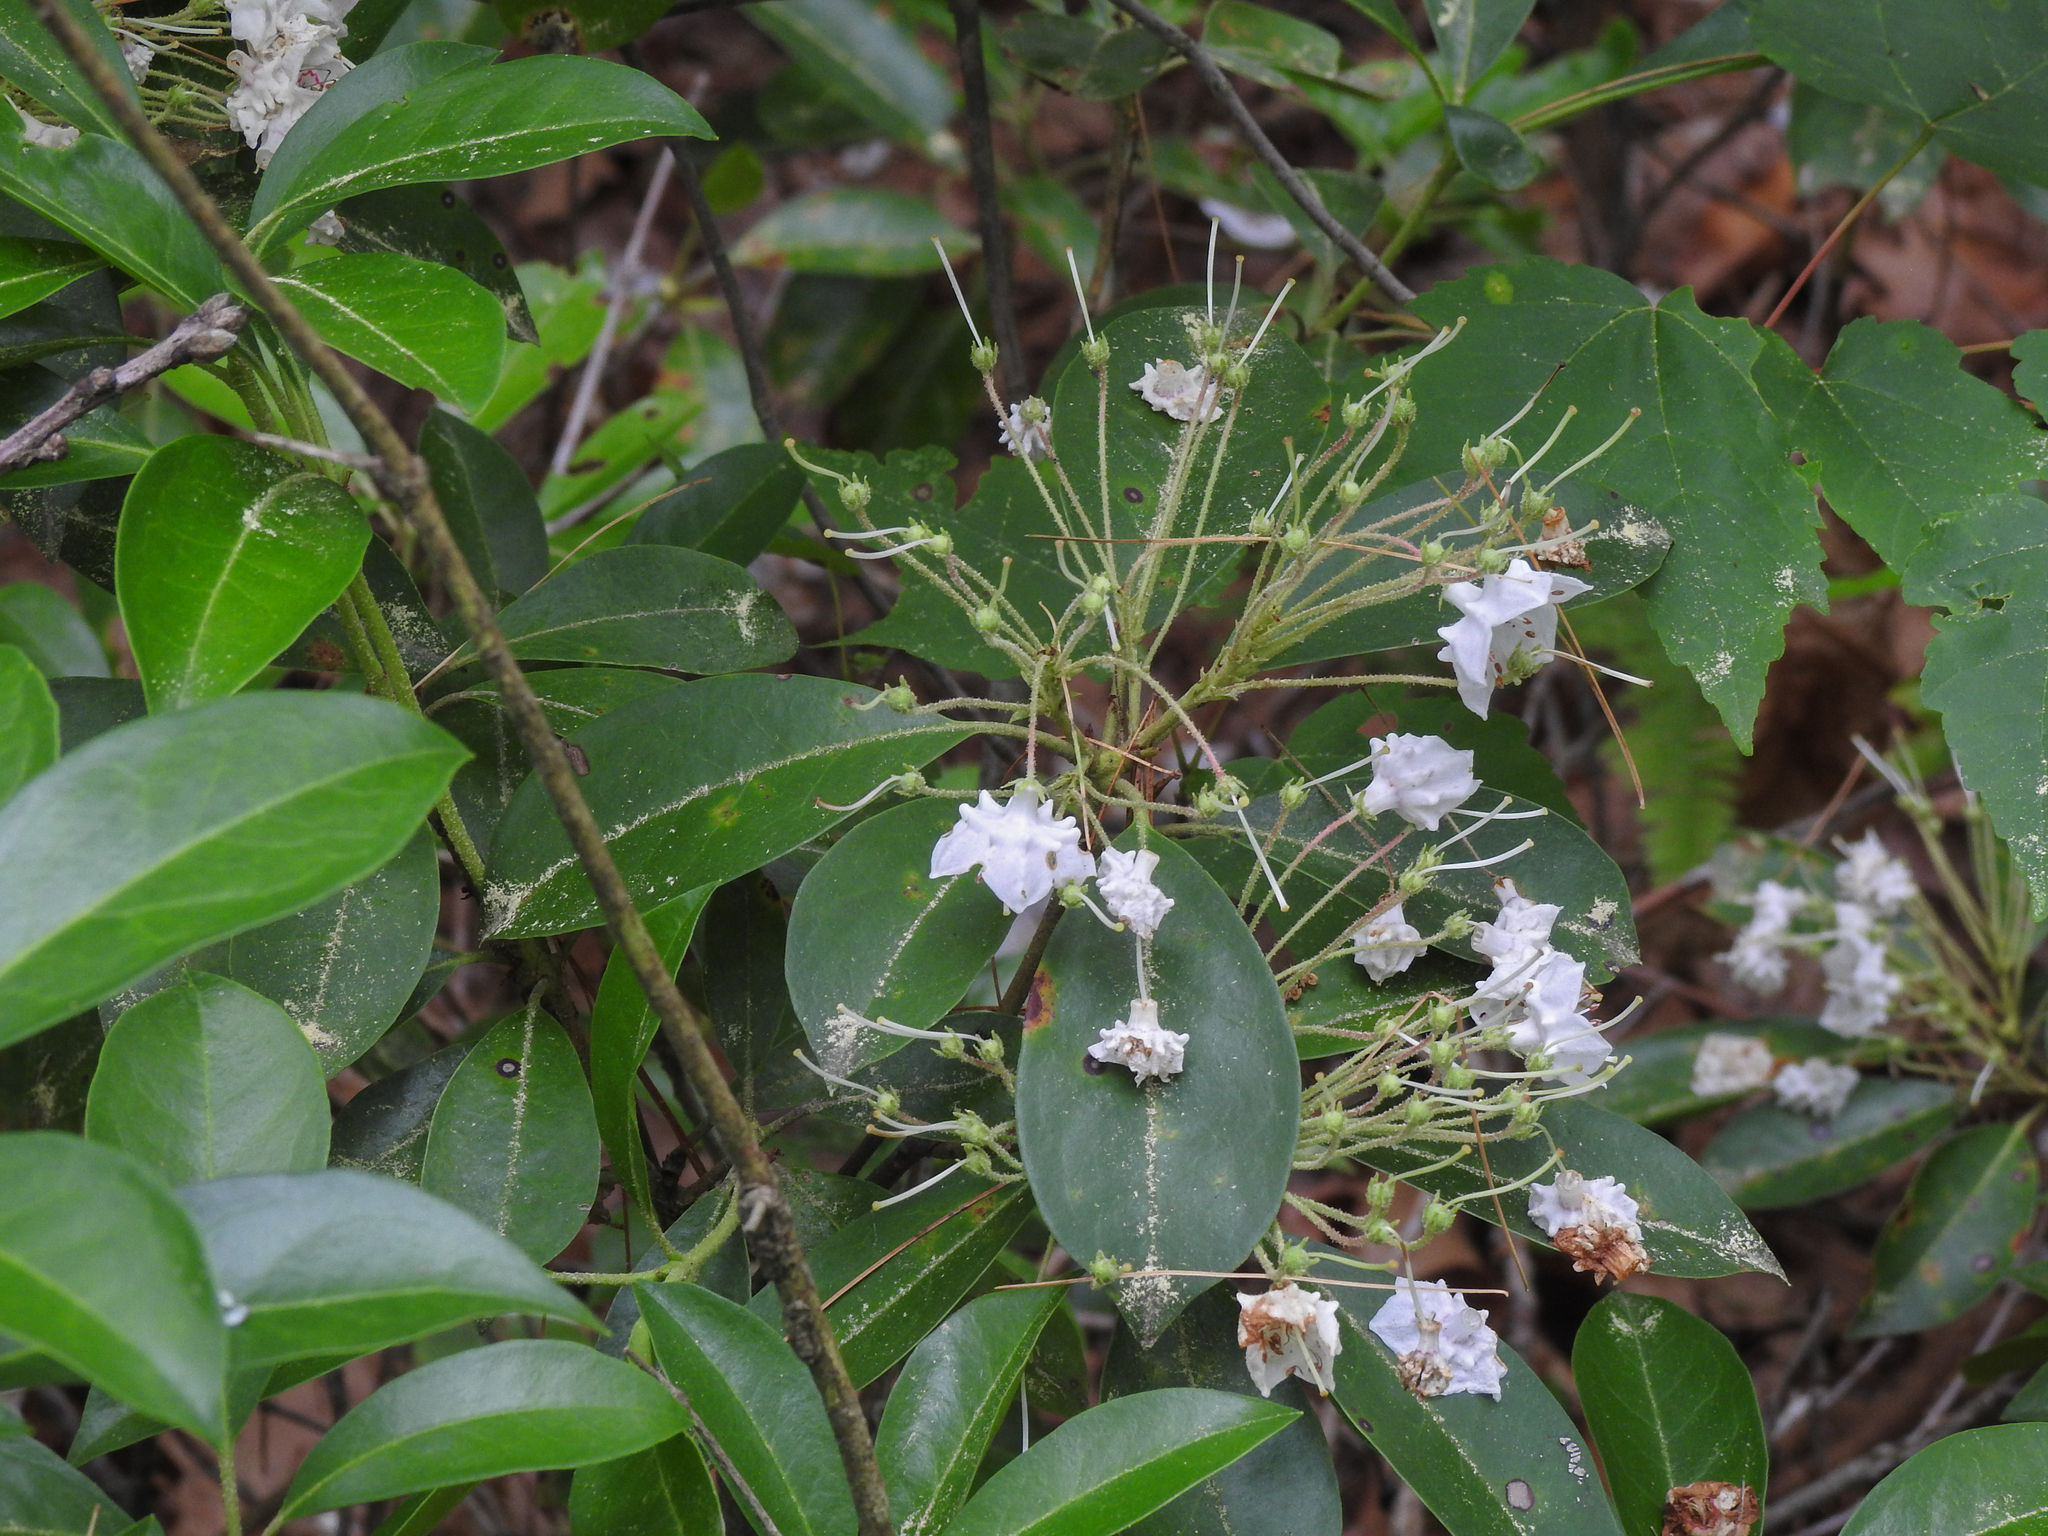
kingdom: Plantae
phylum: Tracheophyta
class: Magnoliopsida
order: Ericales
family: Ericaceae
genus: Kalmia
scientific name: Kalmia latifolia
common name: Mountain-laurel
